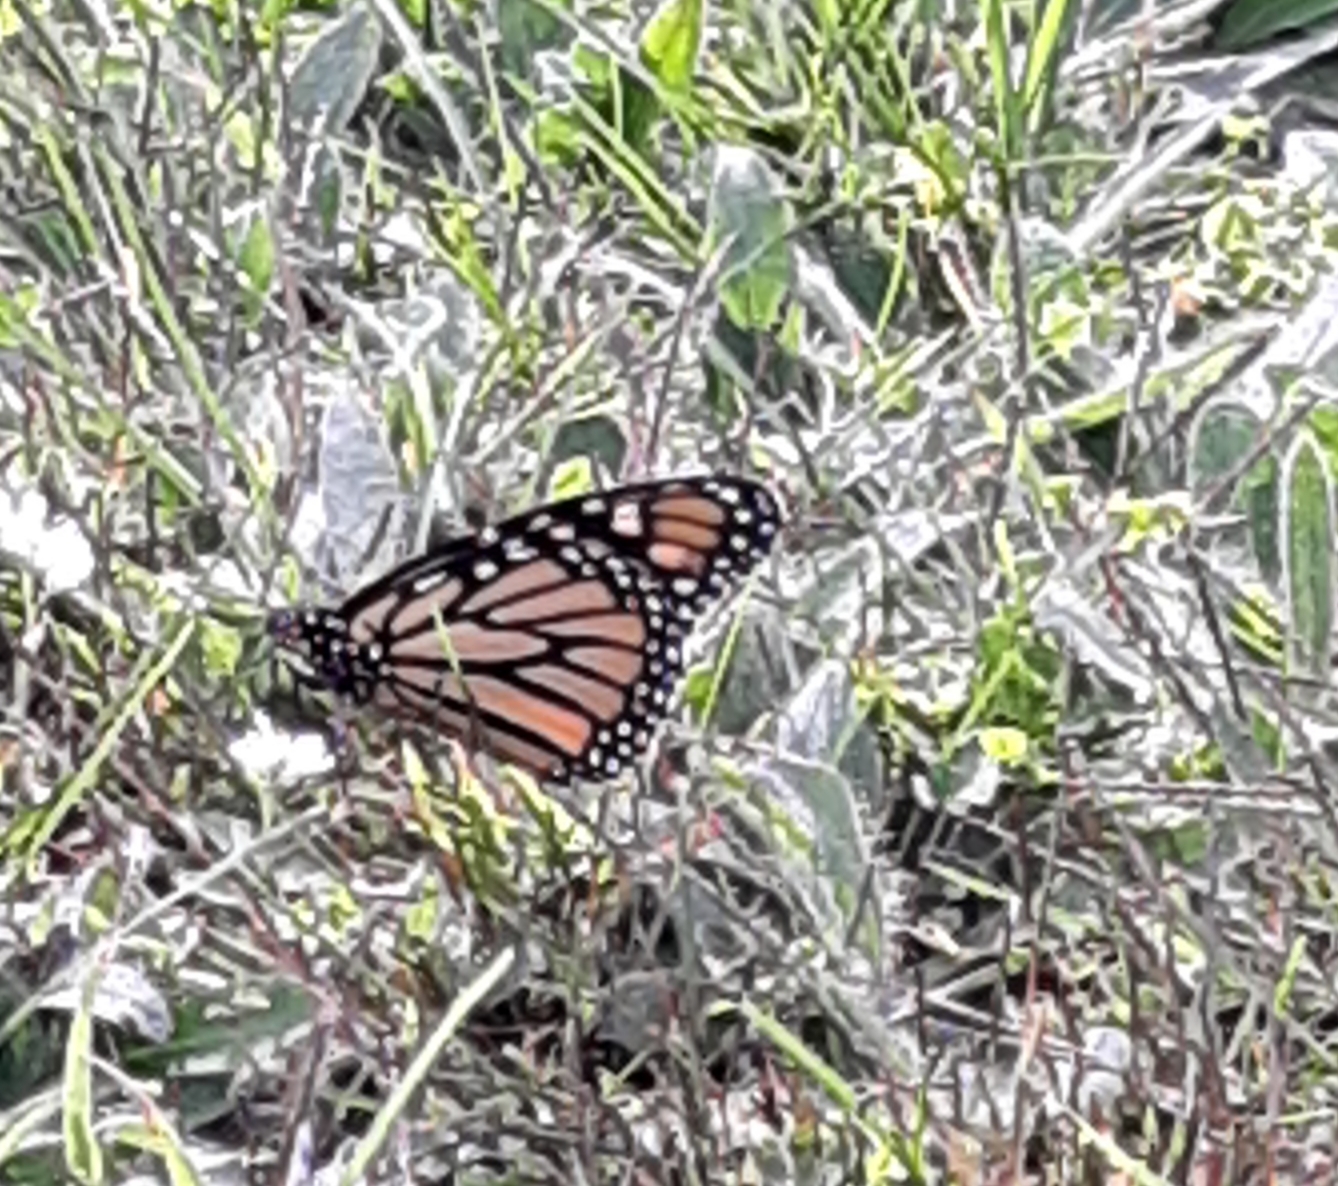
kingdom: Animalia
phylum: Arthropoda
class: Insecta
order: Lepidoptera
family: Nymphalidae
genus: Danaus
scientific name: Danaus plexippus
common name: Monarch
